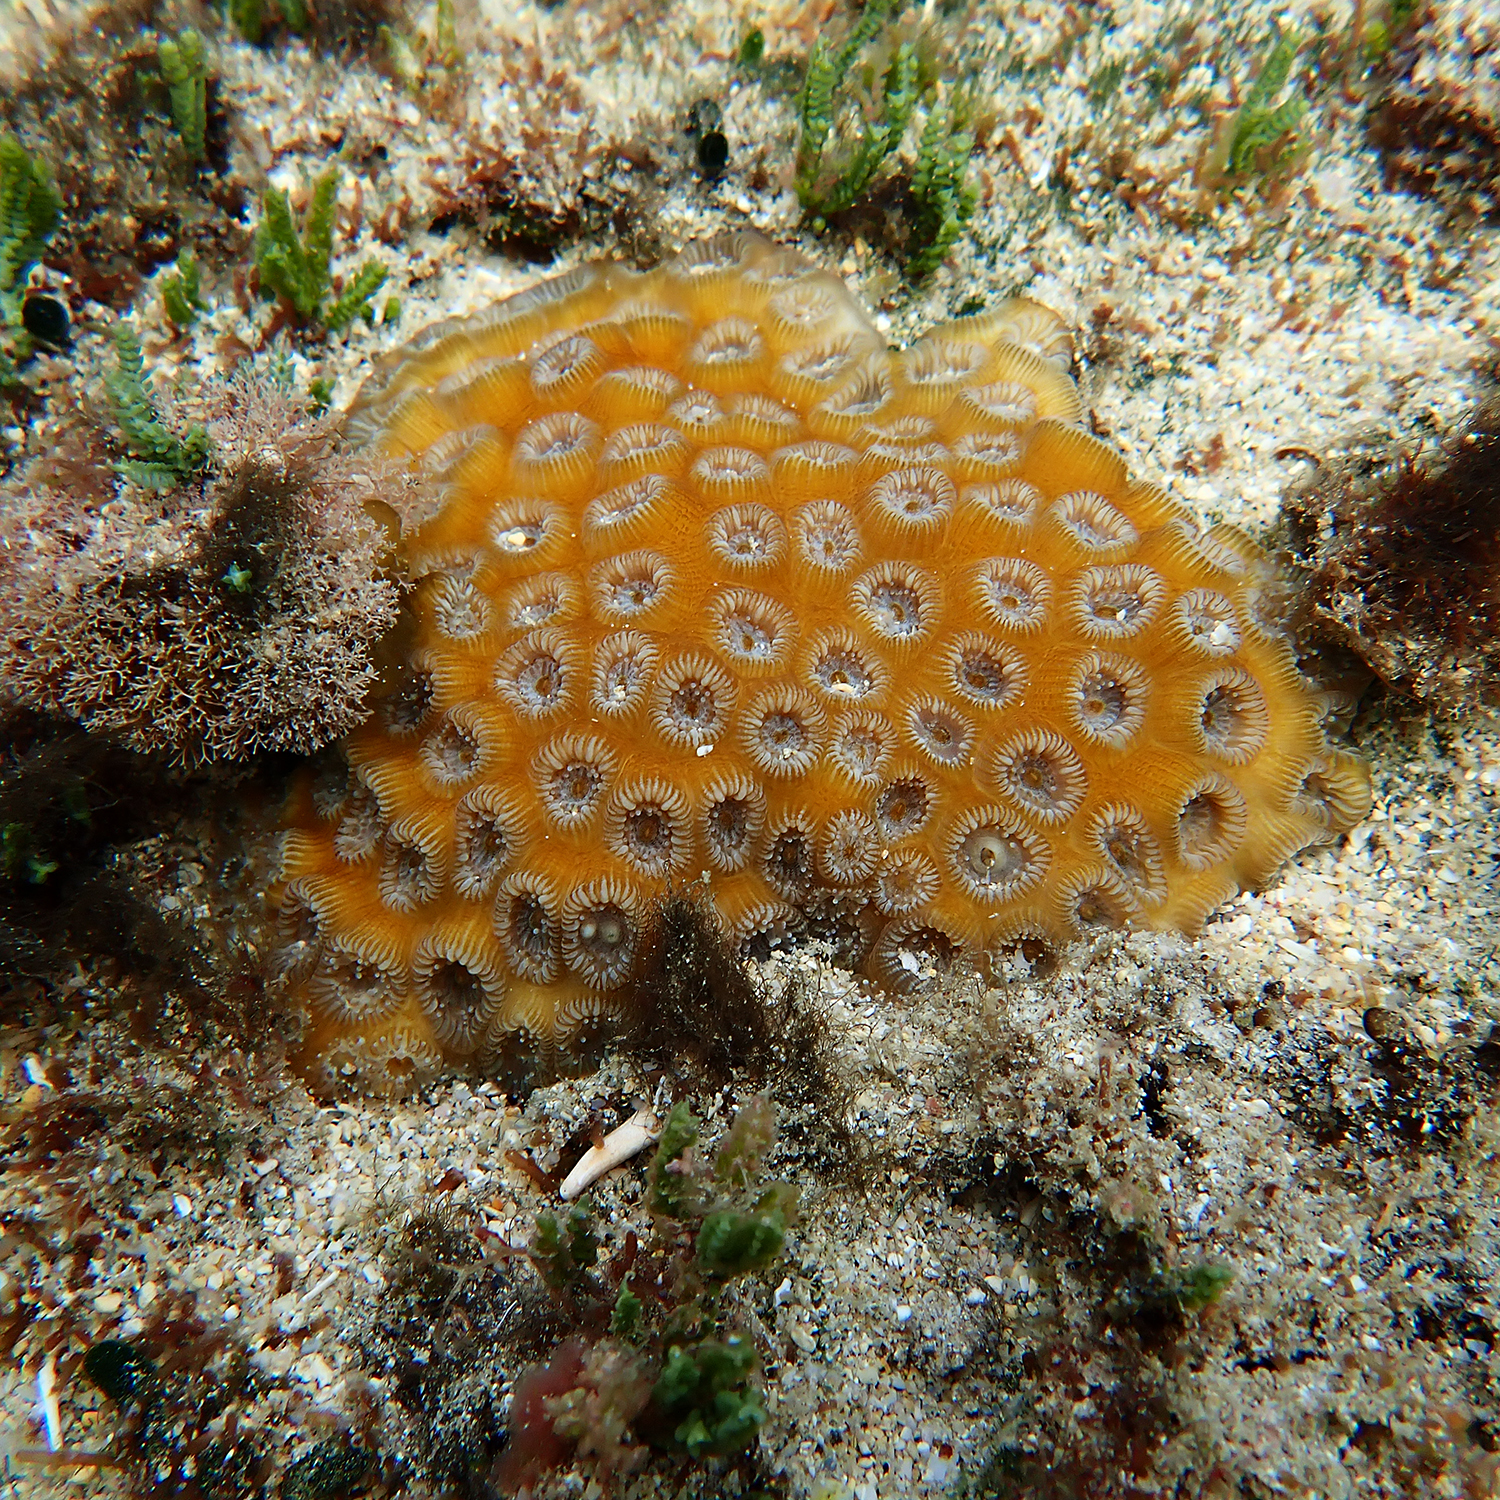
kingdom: Animalia
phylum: Cnidaria
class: Anthozoa
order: Scleractinia
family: Merulinidae
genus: Astrea
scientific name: Astrea curta
